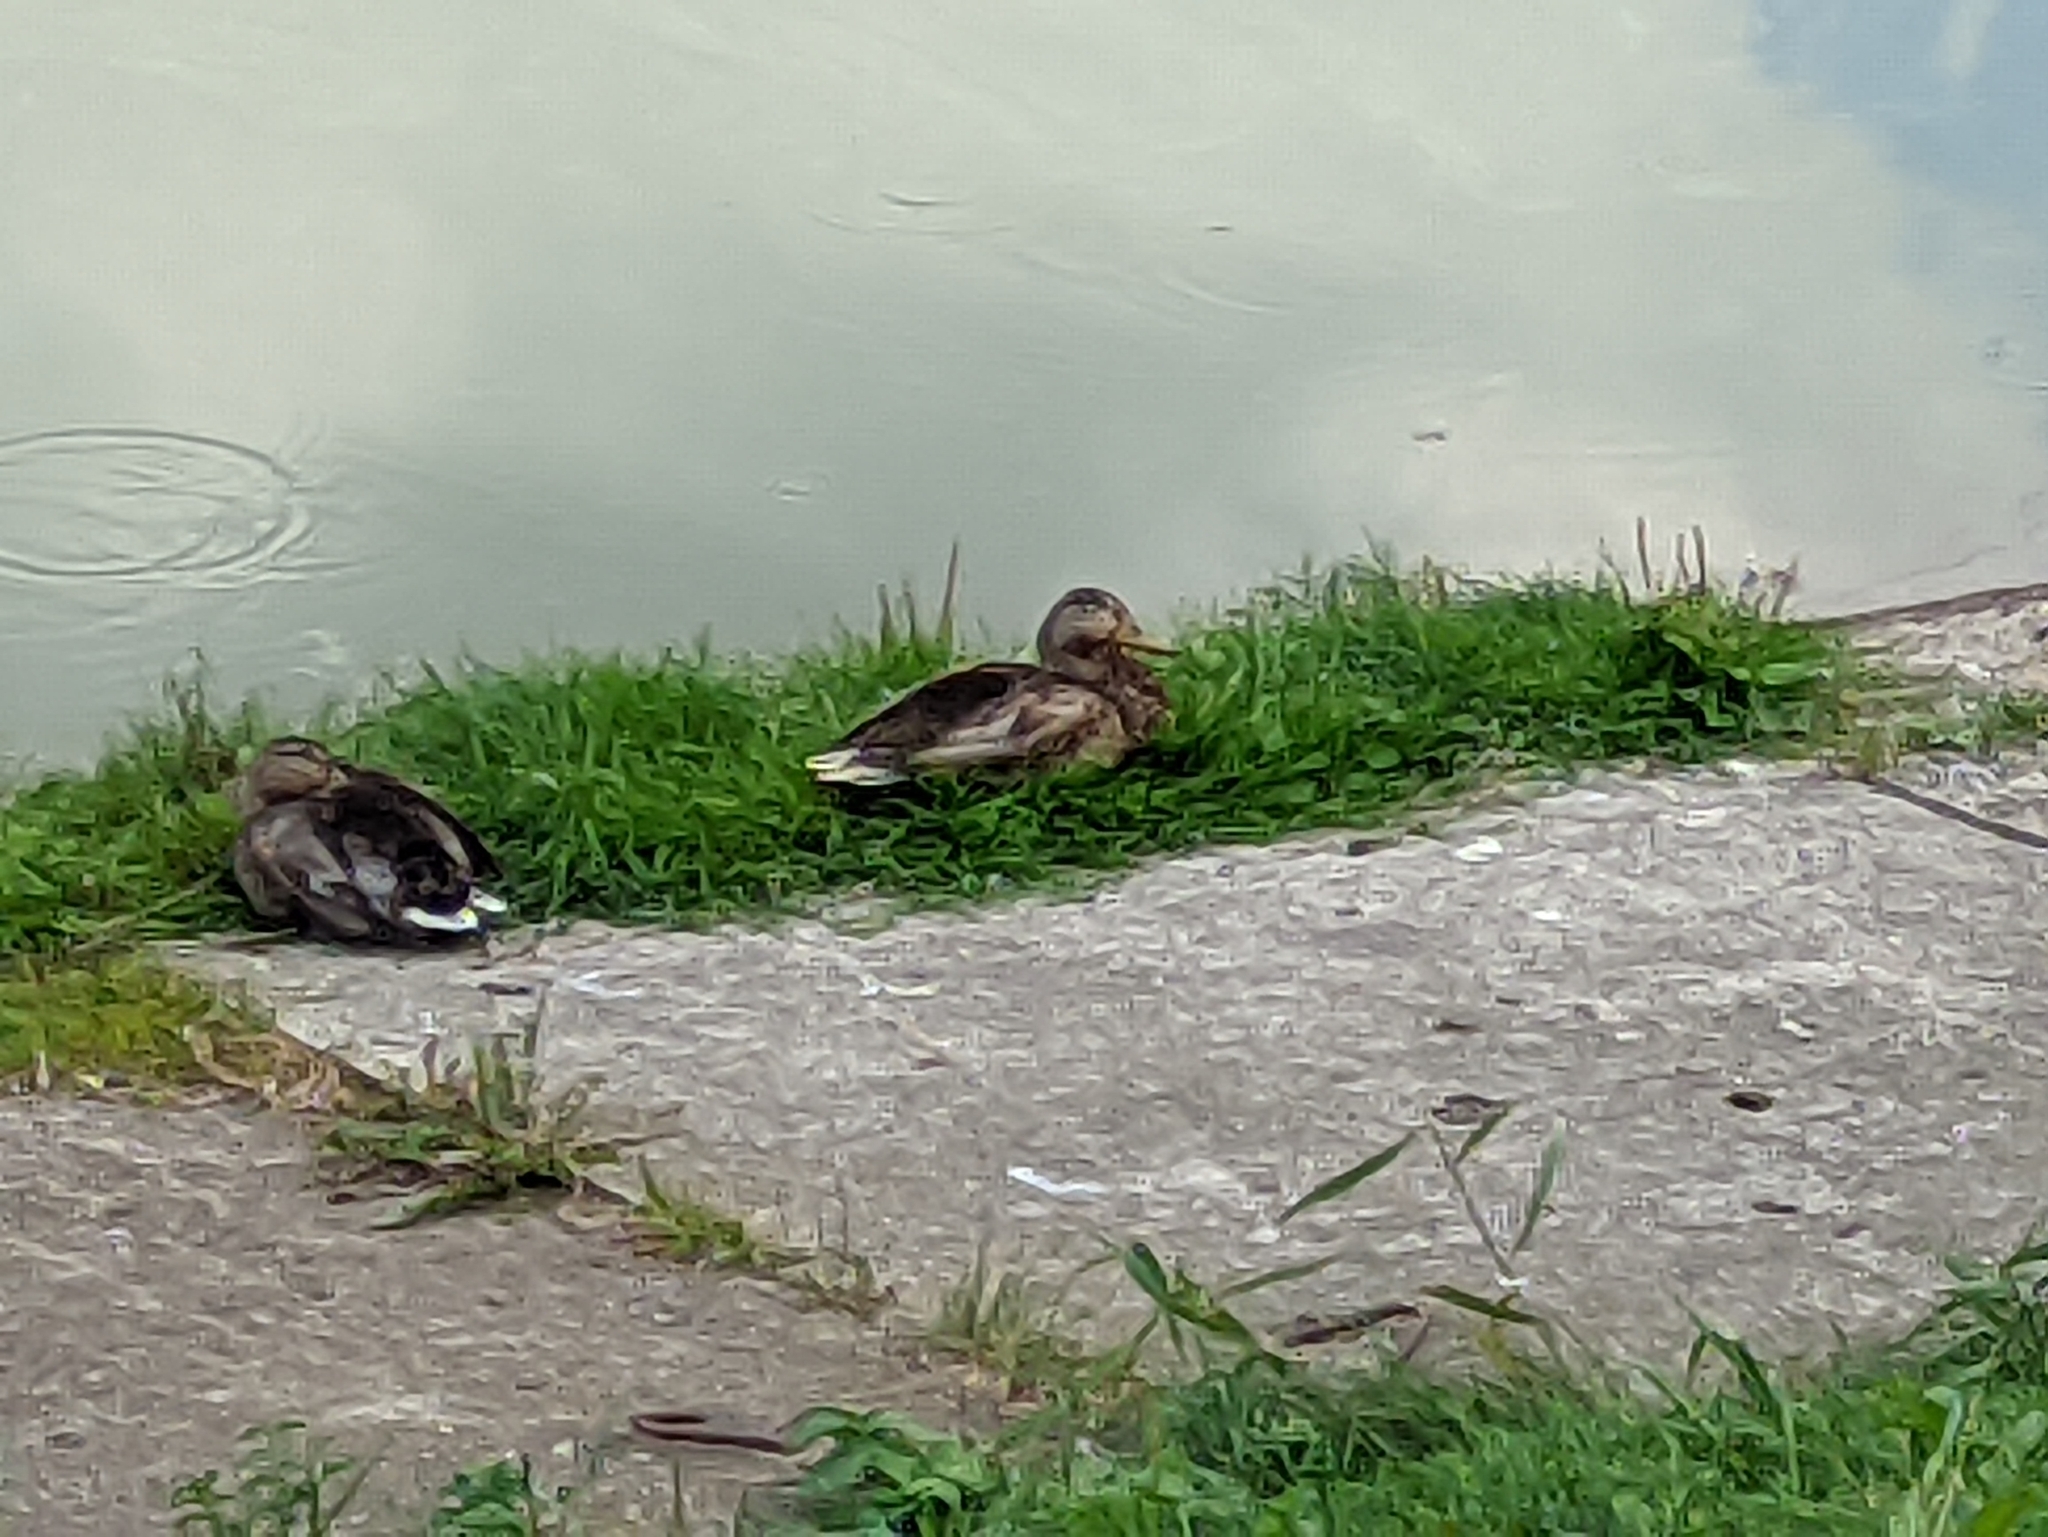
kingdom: Animalia
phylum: Chordata
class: Aves
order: Anseriformes
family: Anatidae
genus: Anas
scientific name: Anas platyrhynchos
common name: Mallard
